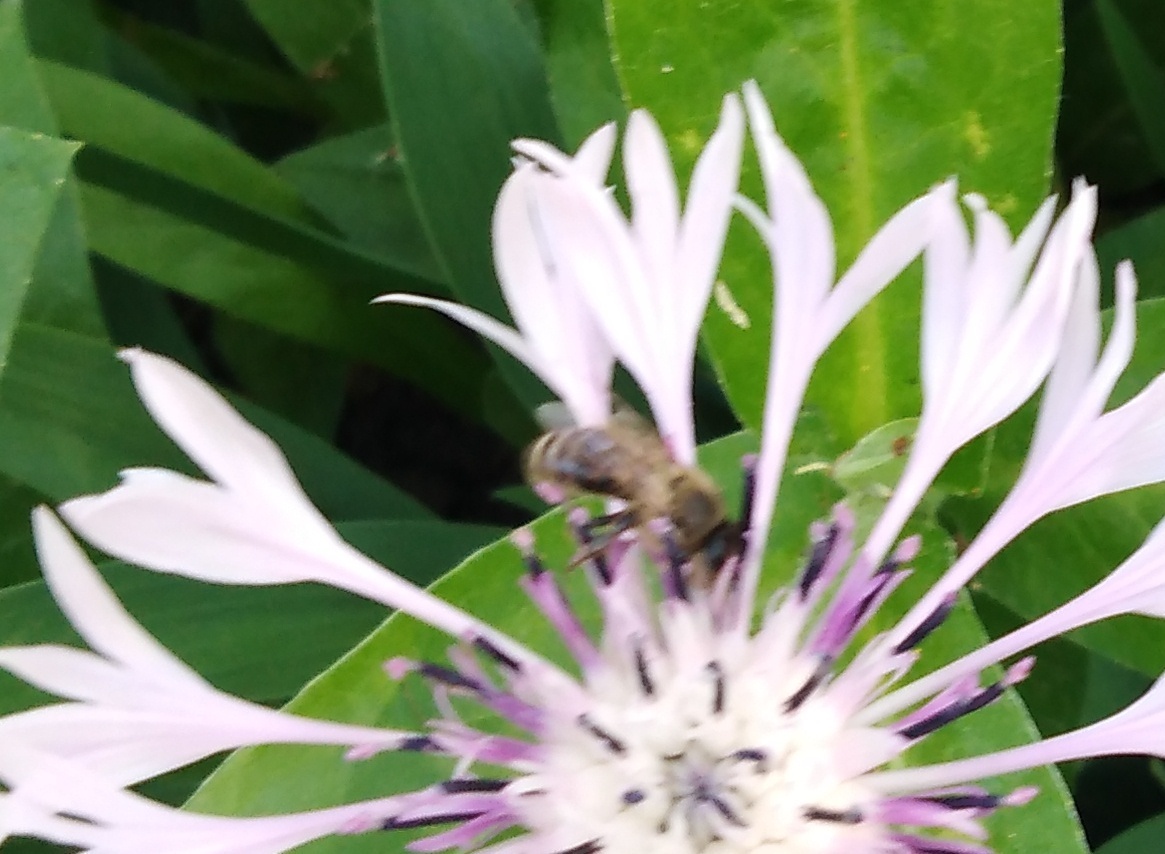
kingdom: Animalia
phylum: Arthropoda
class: Insecta
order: Hymenoptera
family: Apidae
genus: Apis
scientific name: Apis mellifera
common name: Honey bee
